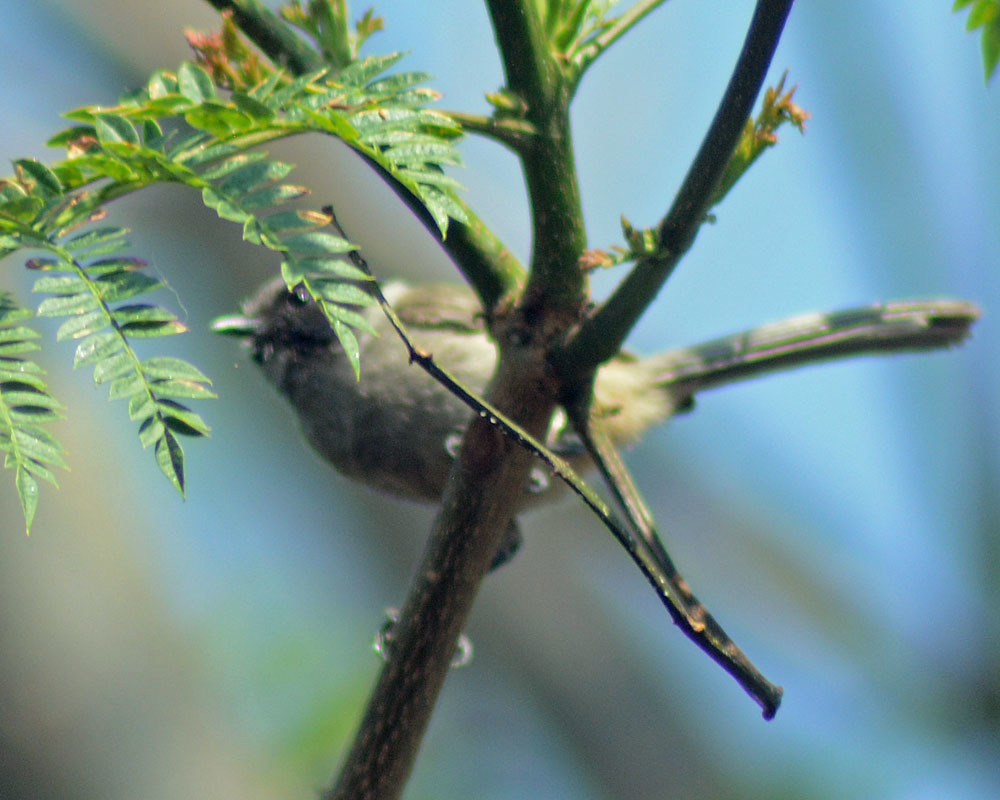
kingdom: Animalia
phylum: Chordata
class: Aves
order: Passeriformes
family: Aegithalidae
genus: Psaltriparus
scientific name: Psaltriparus minimus
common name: American bushtit
